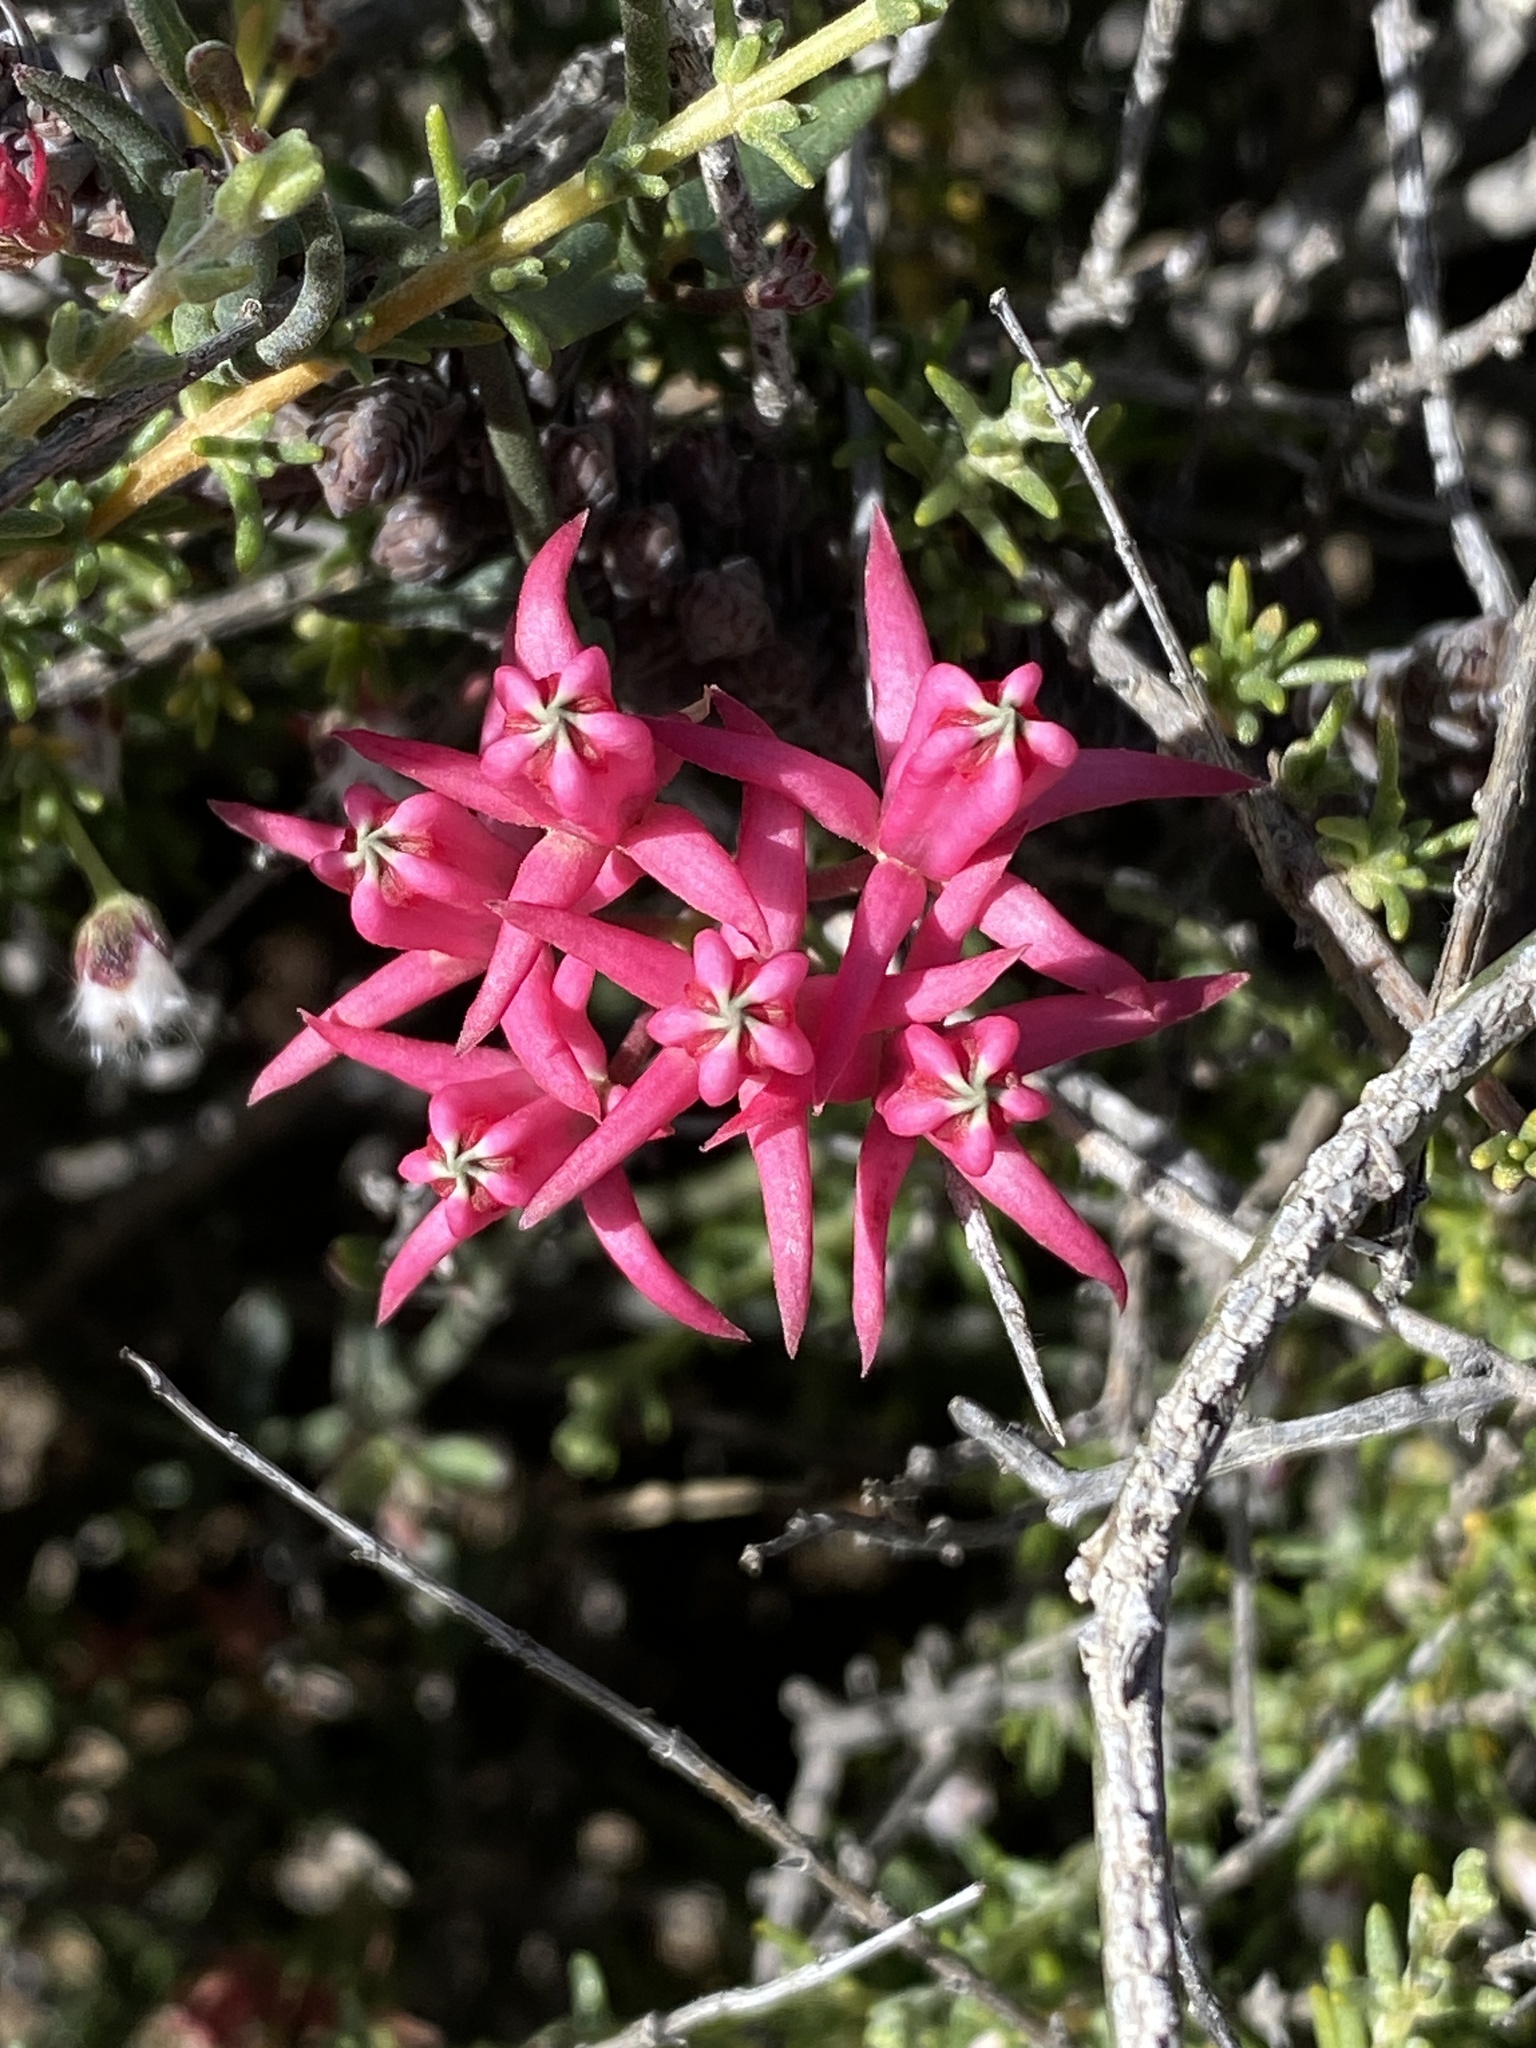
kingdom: Plantae
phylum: Tracheophyta
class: Magnoliopsida
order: Gentianales
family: Apocynaceae
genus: Microloma
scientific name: Microloma sagittatum
